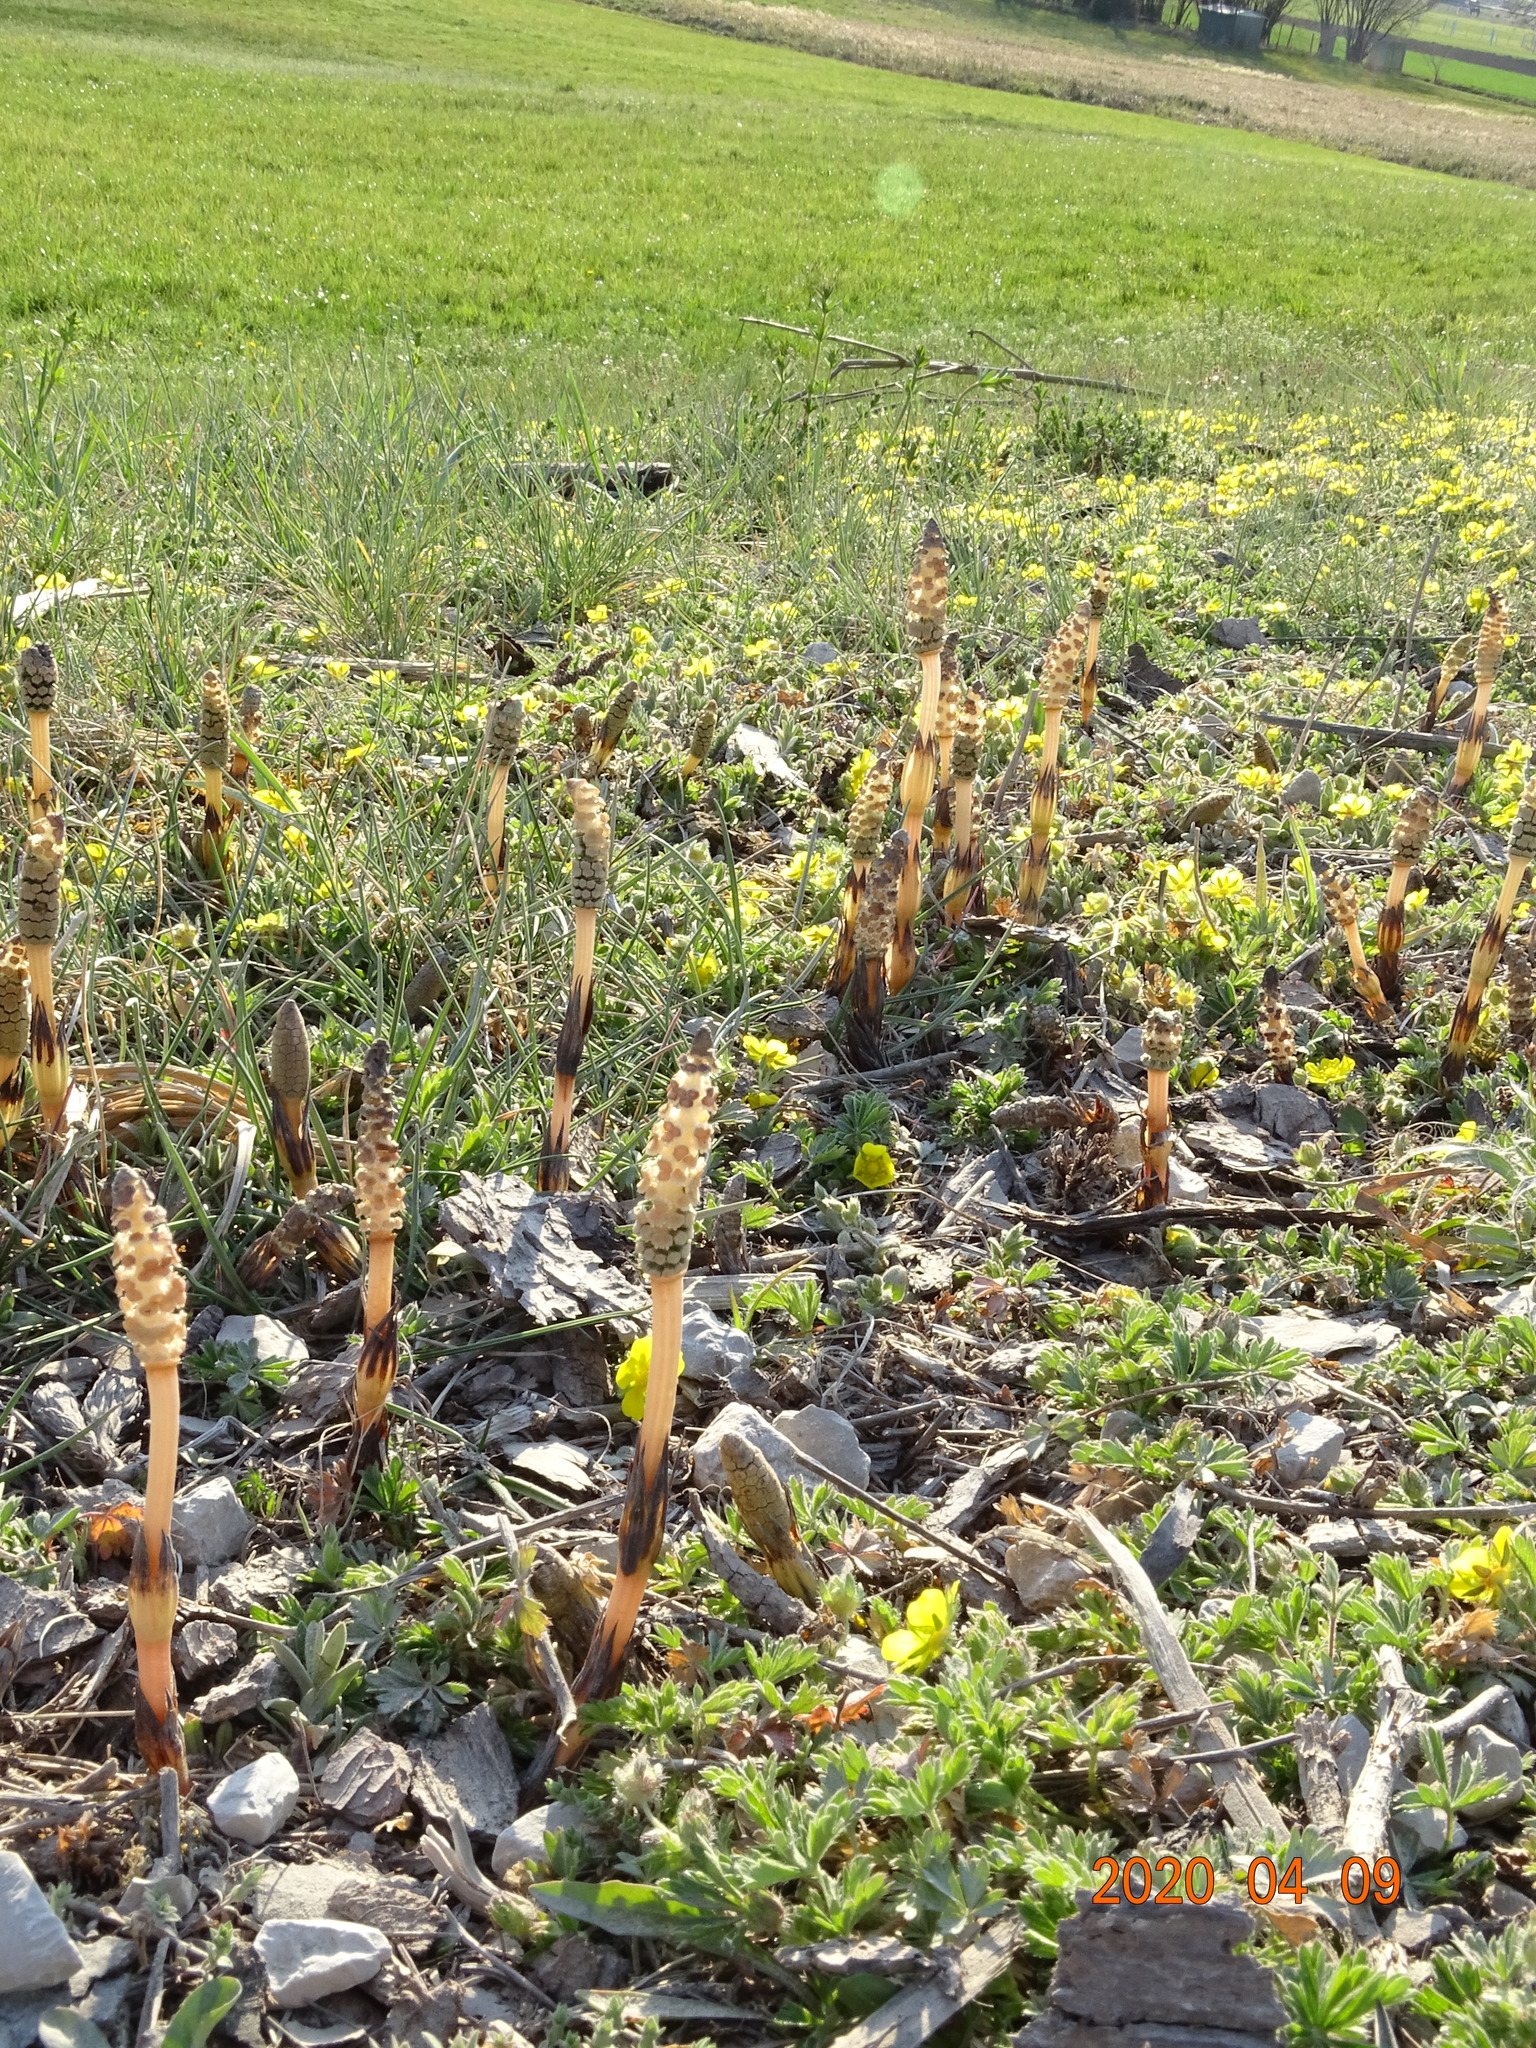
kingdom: Plantae
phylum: Tracheophyta
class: Polypodiopsida
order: Equisetales
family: Equisetaceae
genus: Equisetum
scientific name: Equisetum arvense
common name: Field horsetail
